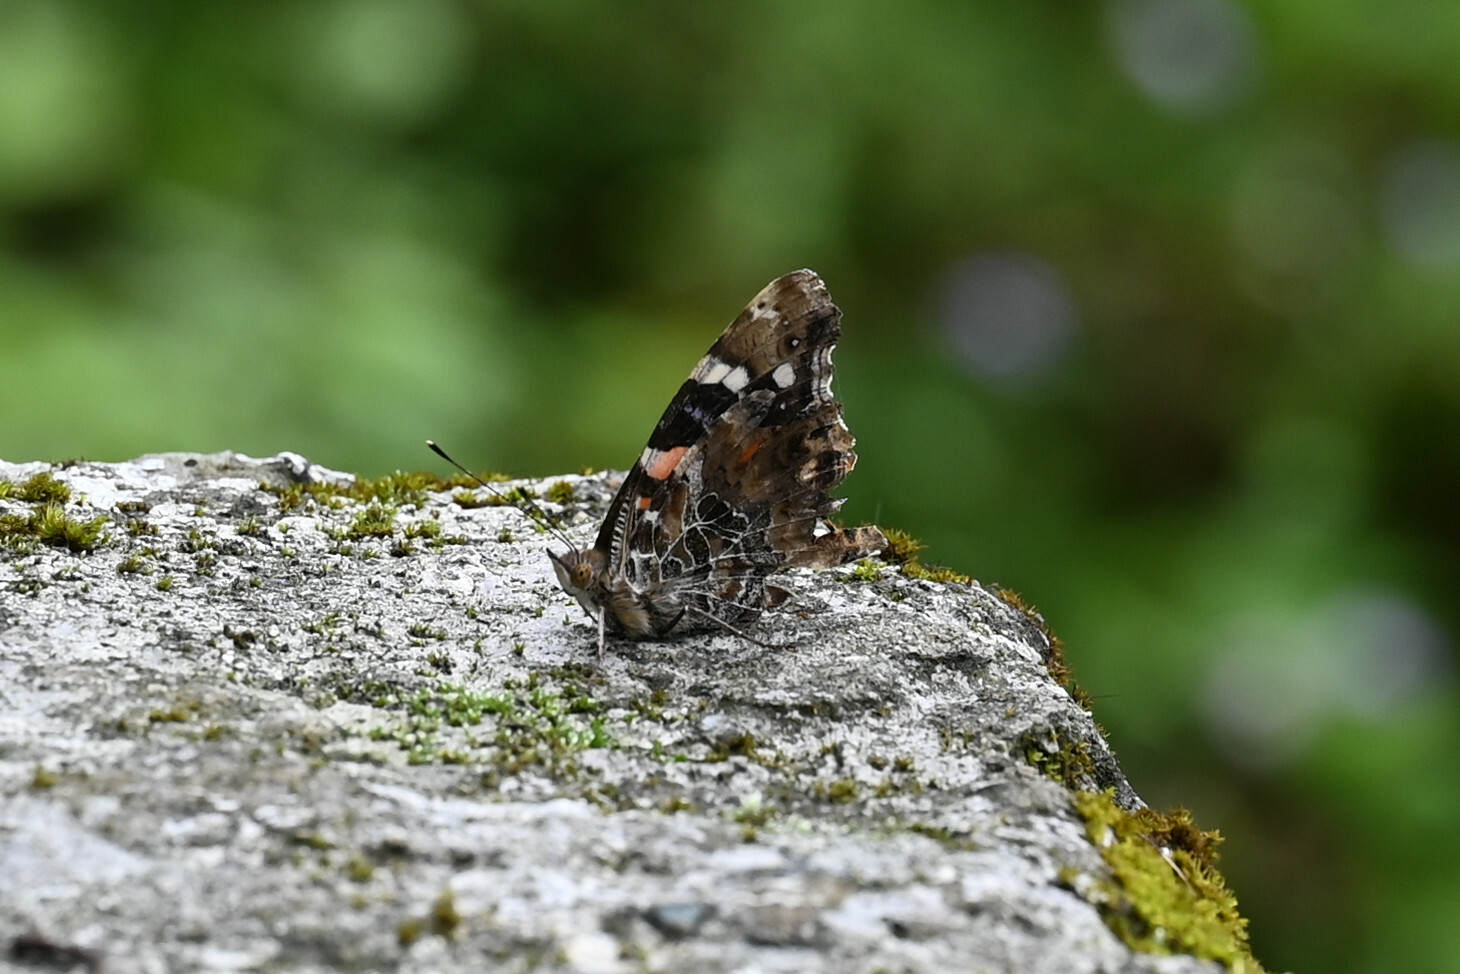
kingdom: Animalia
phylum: Arthropoda
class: Insecta
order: Lepidoptera
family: Nymphalidae
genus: Vanessa
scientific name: Vanessa indica
